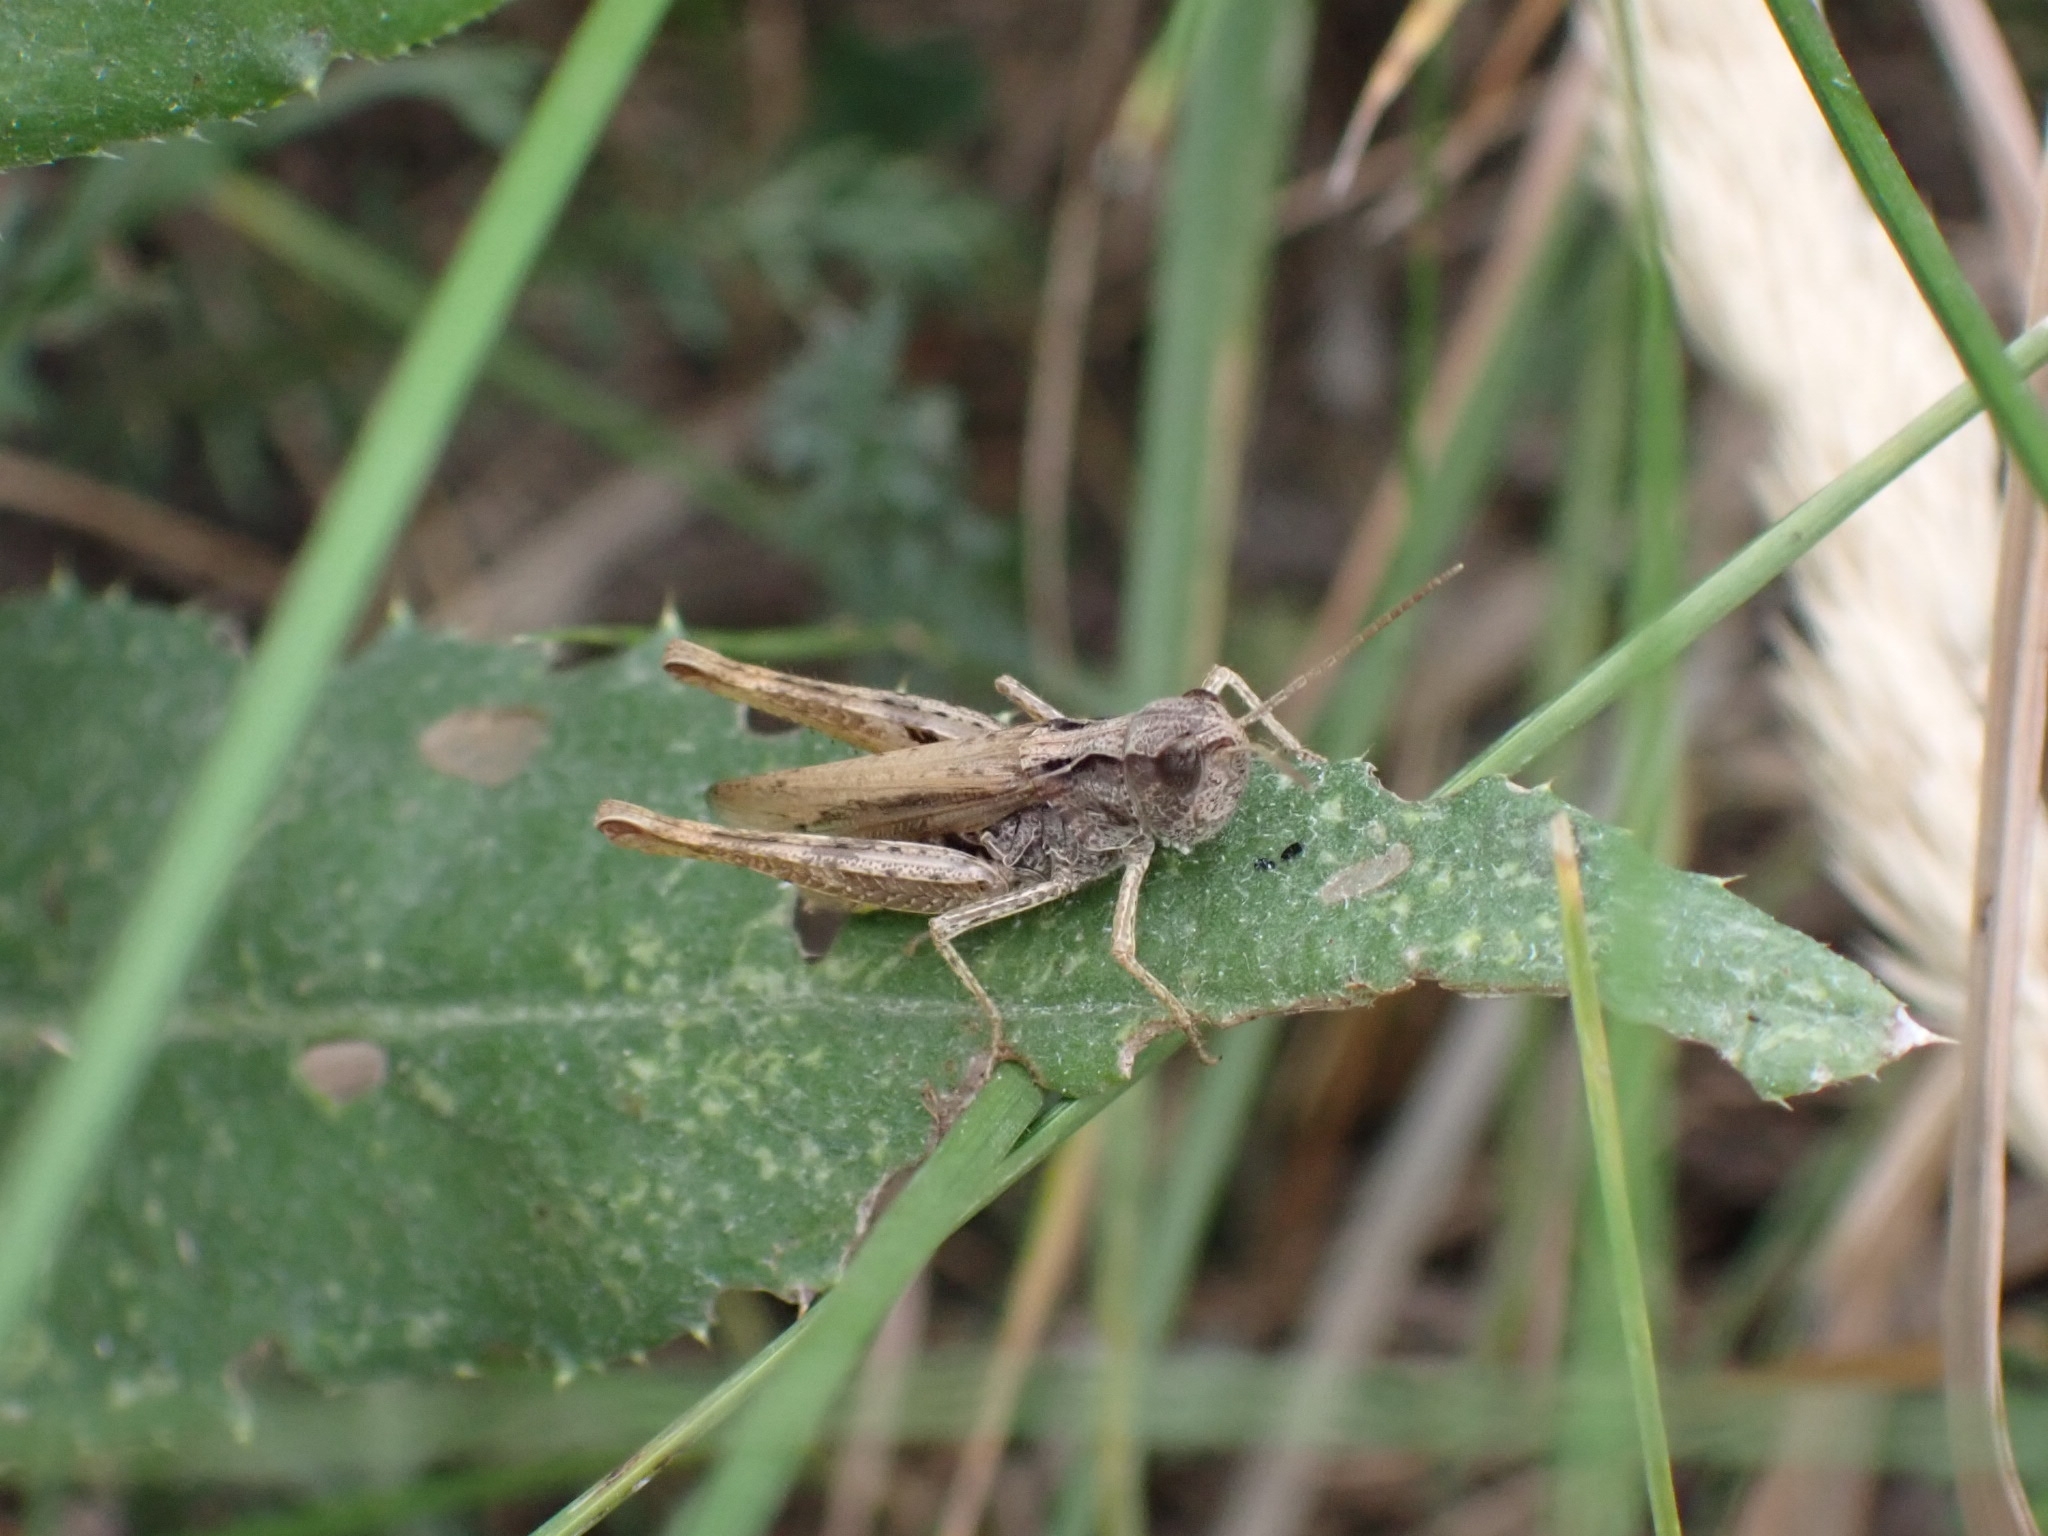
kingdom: Animalia
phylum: Arthropoda
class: Insecta
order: Orthoptera
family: Acrididae
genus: Chorthippus
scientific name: Chorthippus apricarius
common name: Upland field grasshopper
